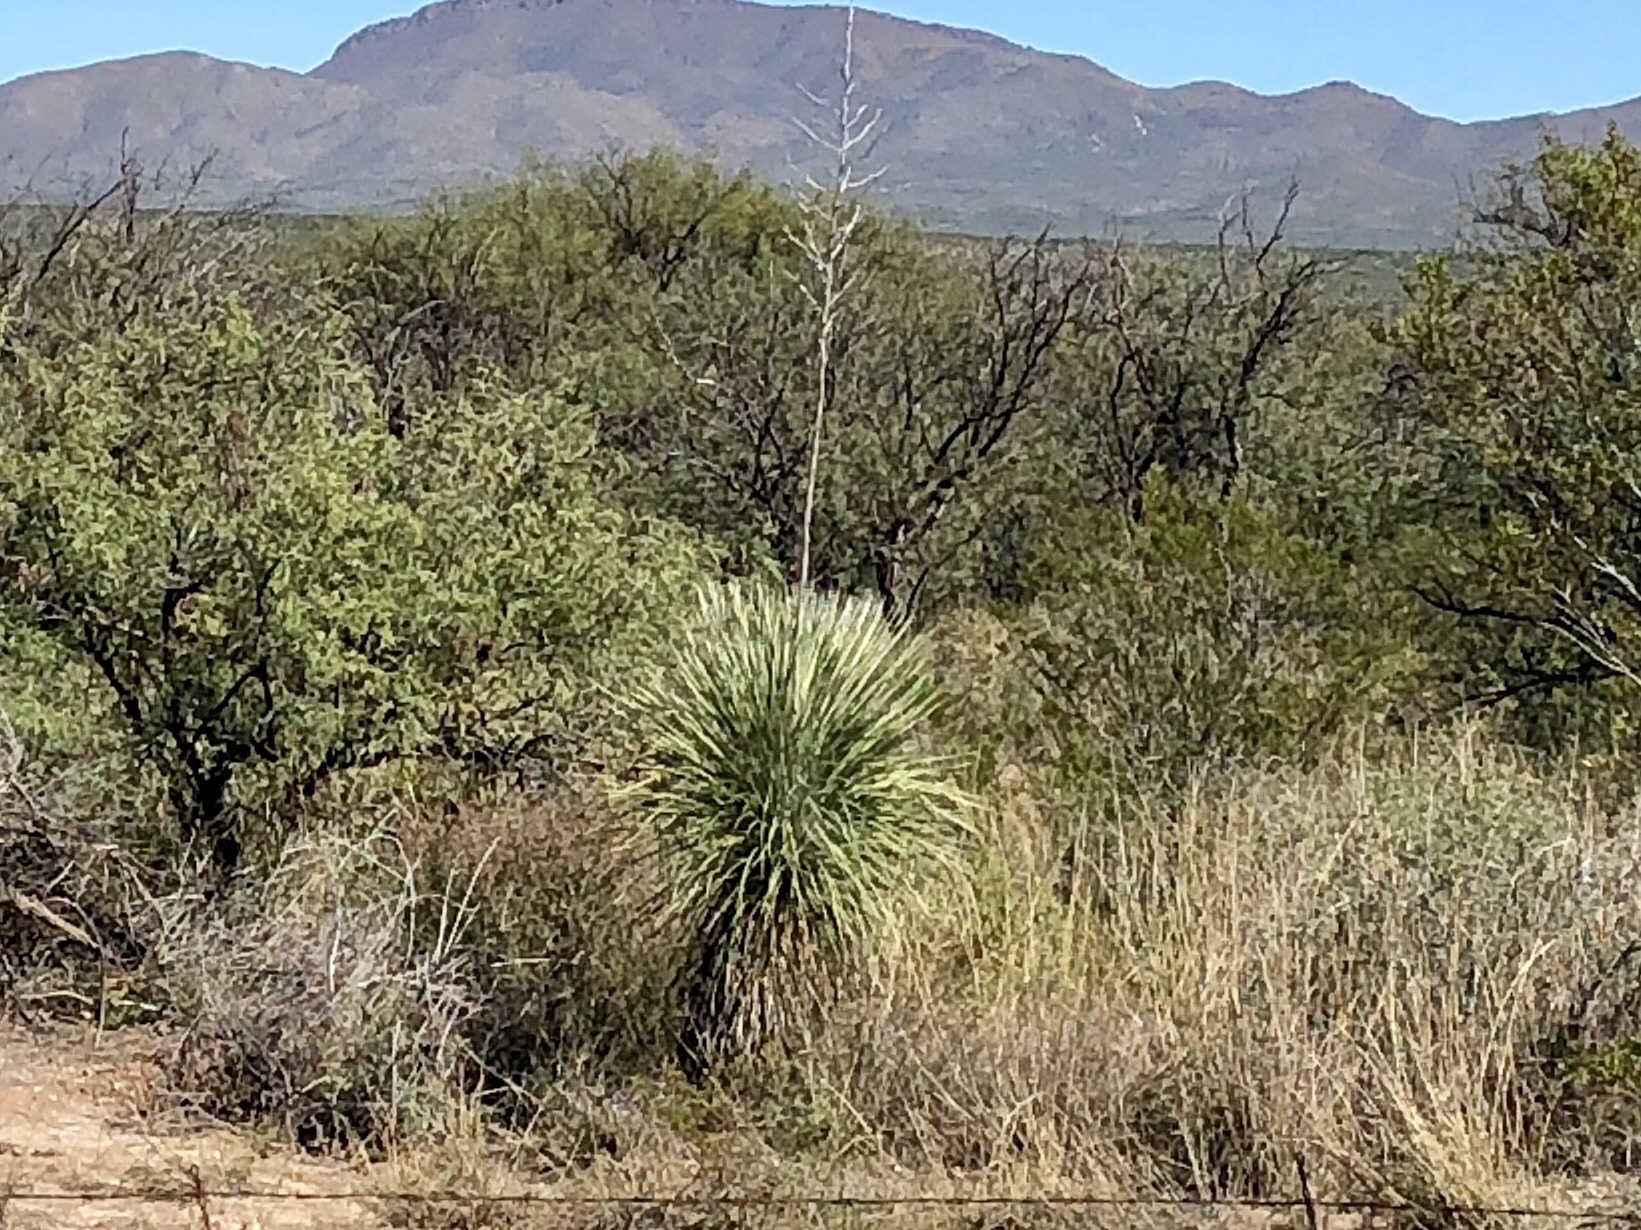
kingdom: Plantae
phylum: Tracheophyta
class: Liliopsida
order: Asparagales
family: Asparagaceae
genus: Yucca
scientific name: Yucca elata
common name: Palmella
